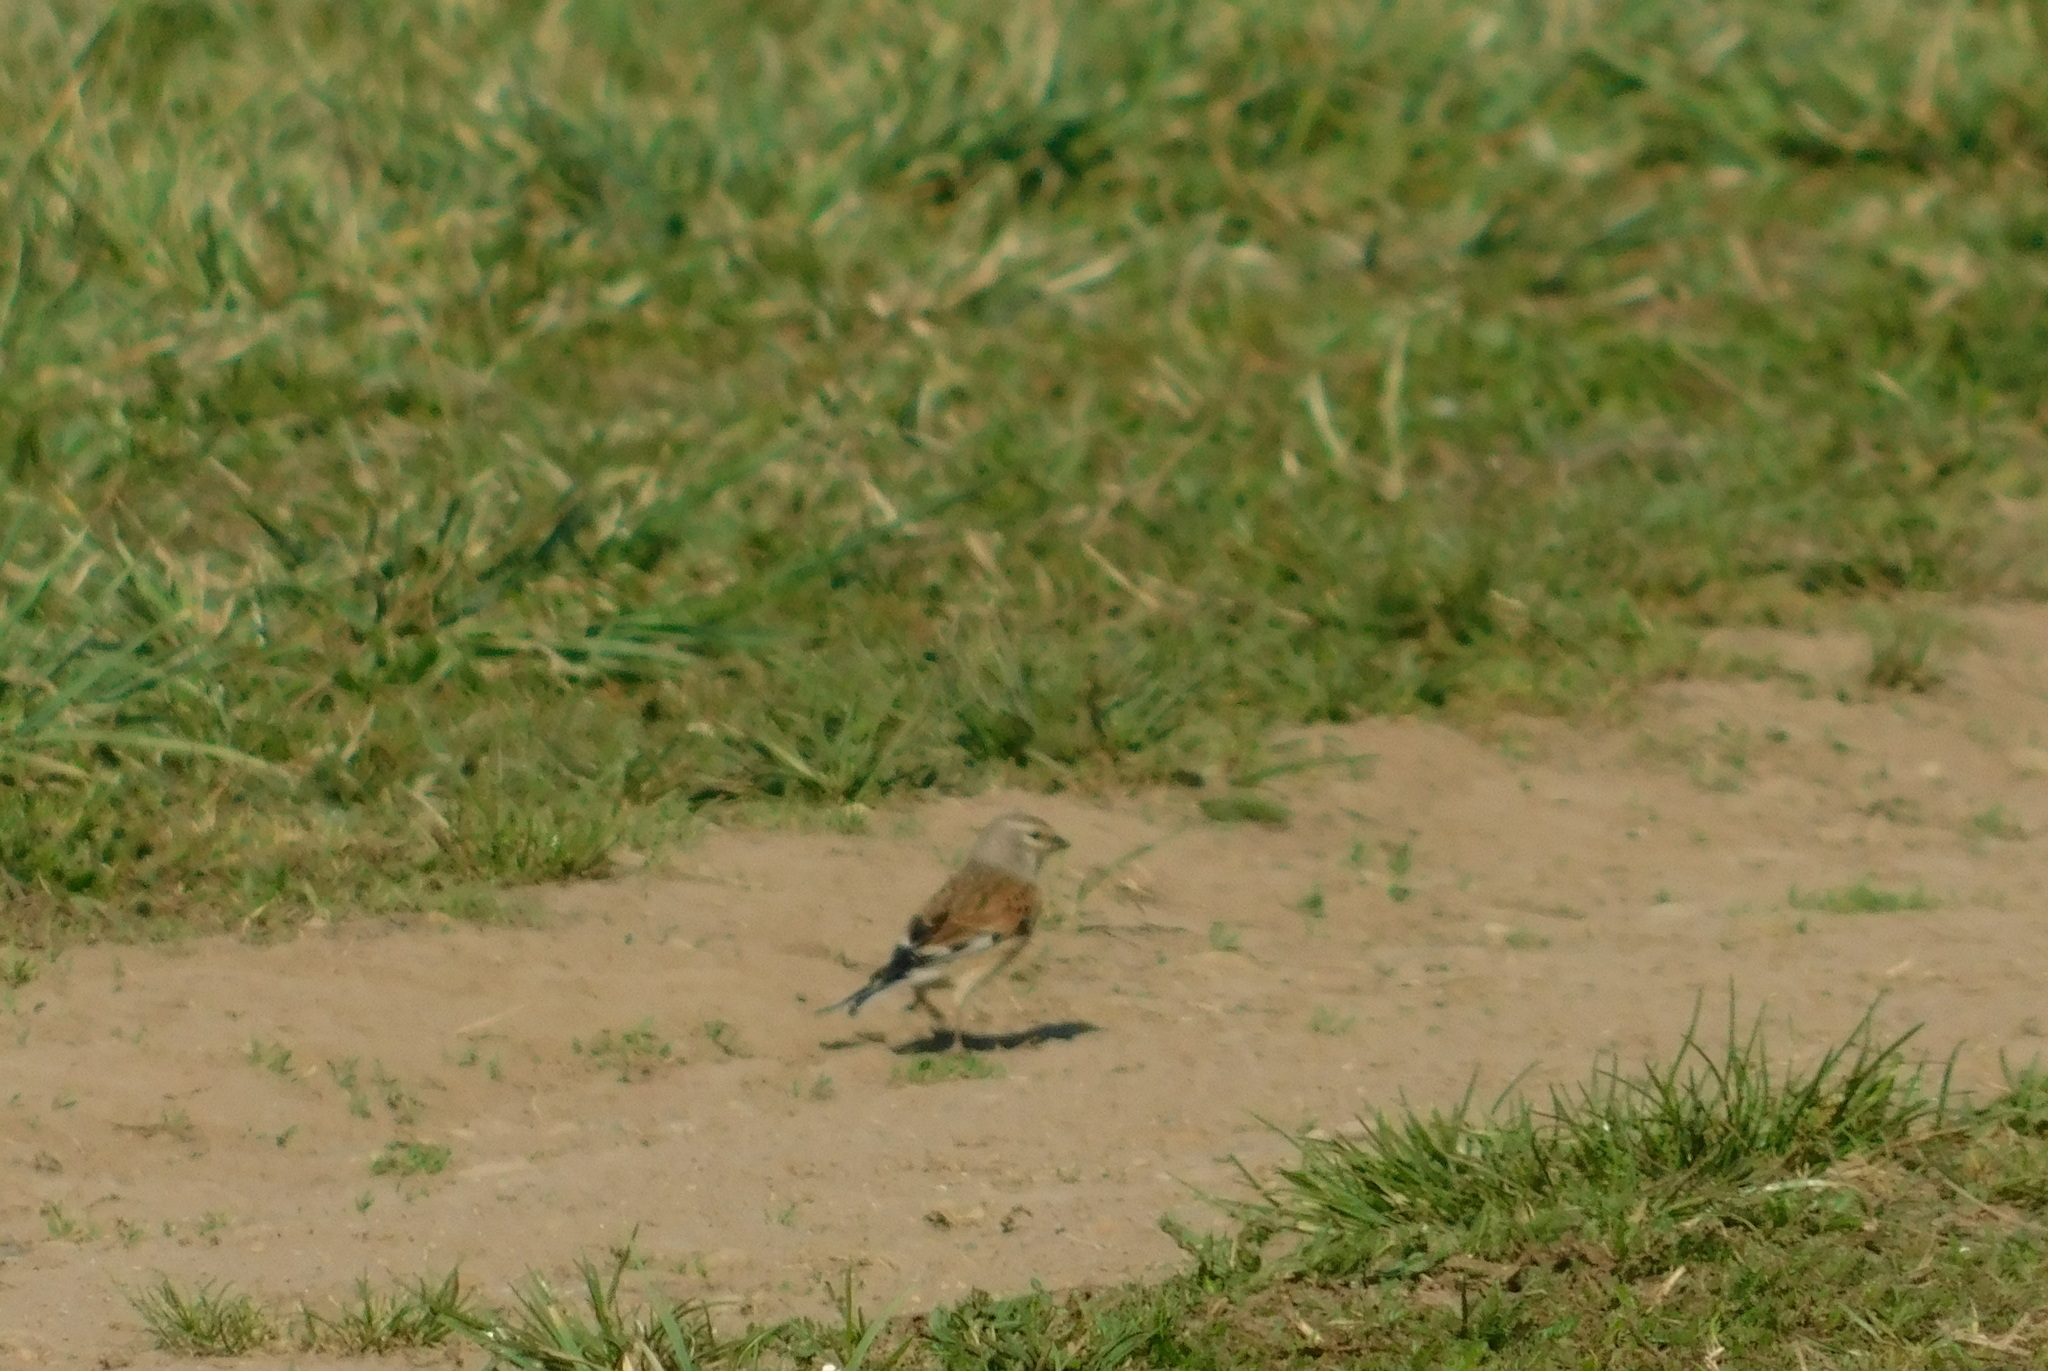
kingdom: Animalia
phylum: Chordata
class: Aves
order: Passeriformes
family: Fringillidae
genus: Linaria
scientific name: Linaria cannabina
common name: Common linnet
